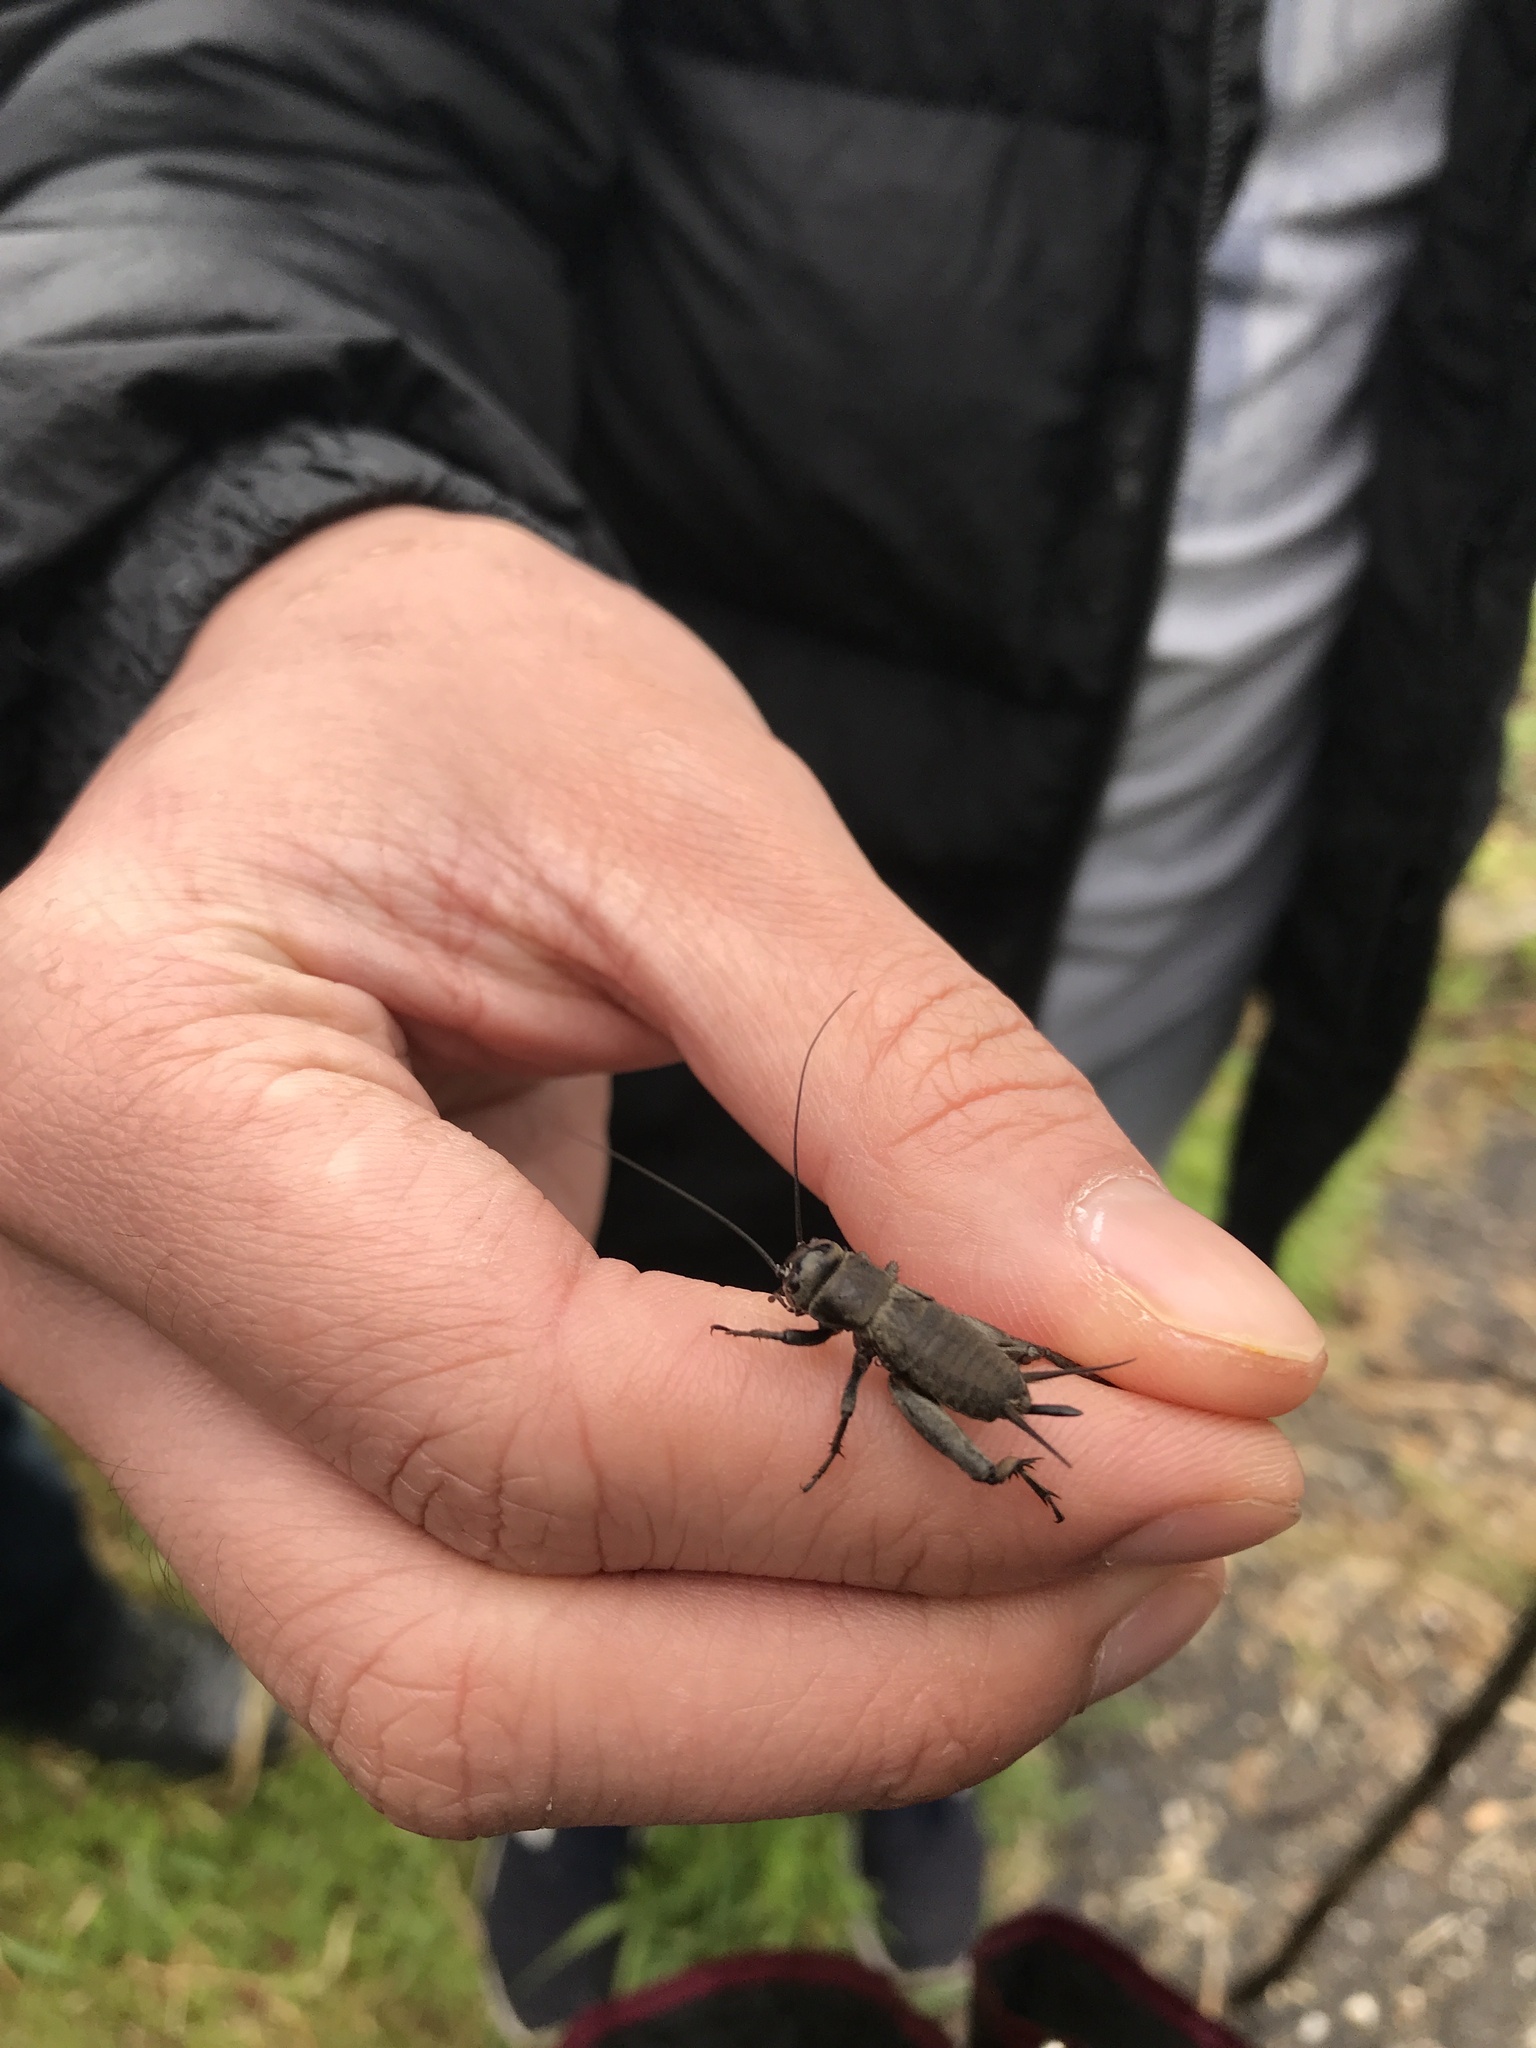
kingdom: Animalia
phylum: Arthropoda
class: Insecta
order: Orthoptera
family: Gryllidae
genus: Melanogryllus
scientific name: Melanogryllus desertus
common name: Desert cricket
